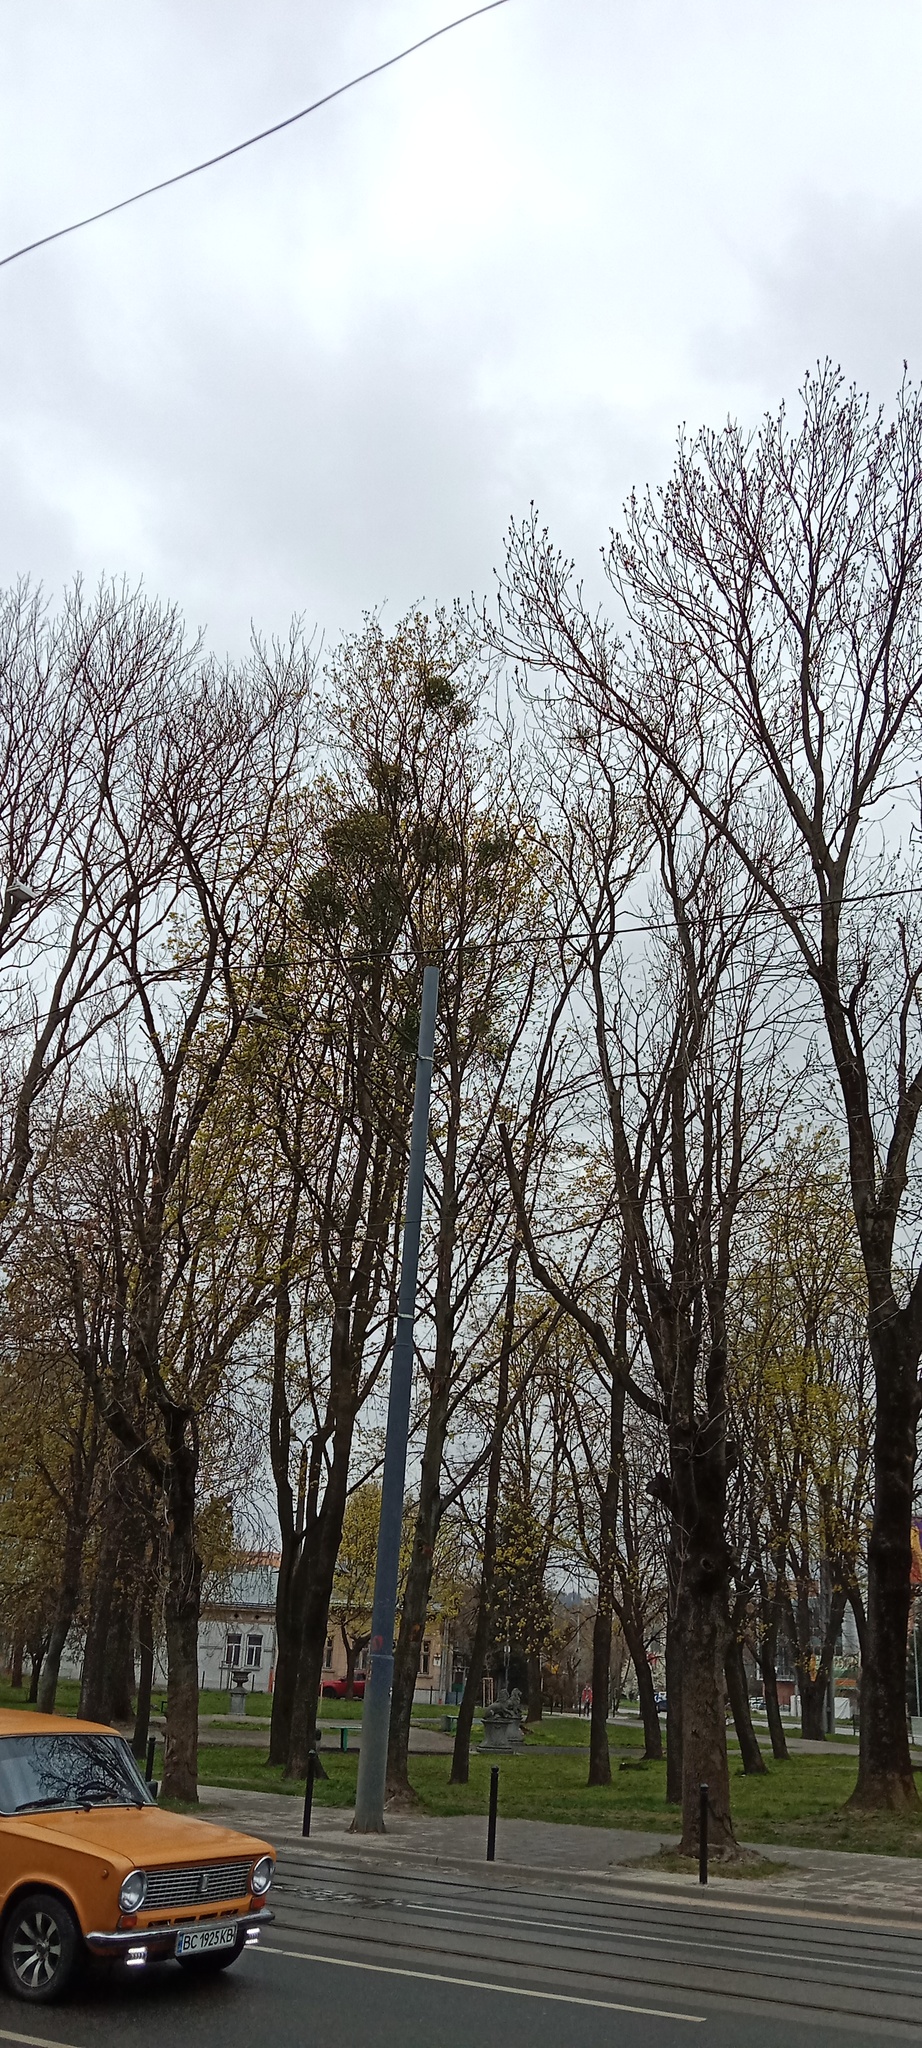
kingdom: Plantae
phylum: Tracheophyta
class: Magnoliopsida
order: Santalales
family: Viscaceae
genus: Viscum
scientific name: Viscum album
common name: Mistletoe
